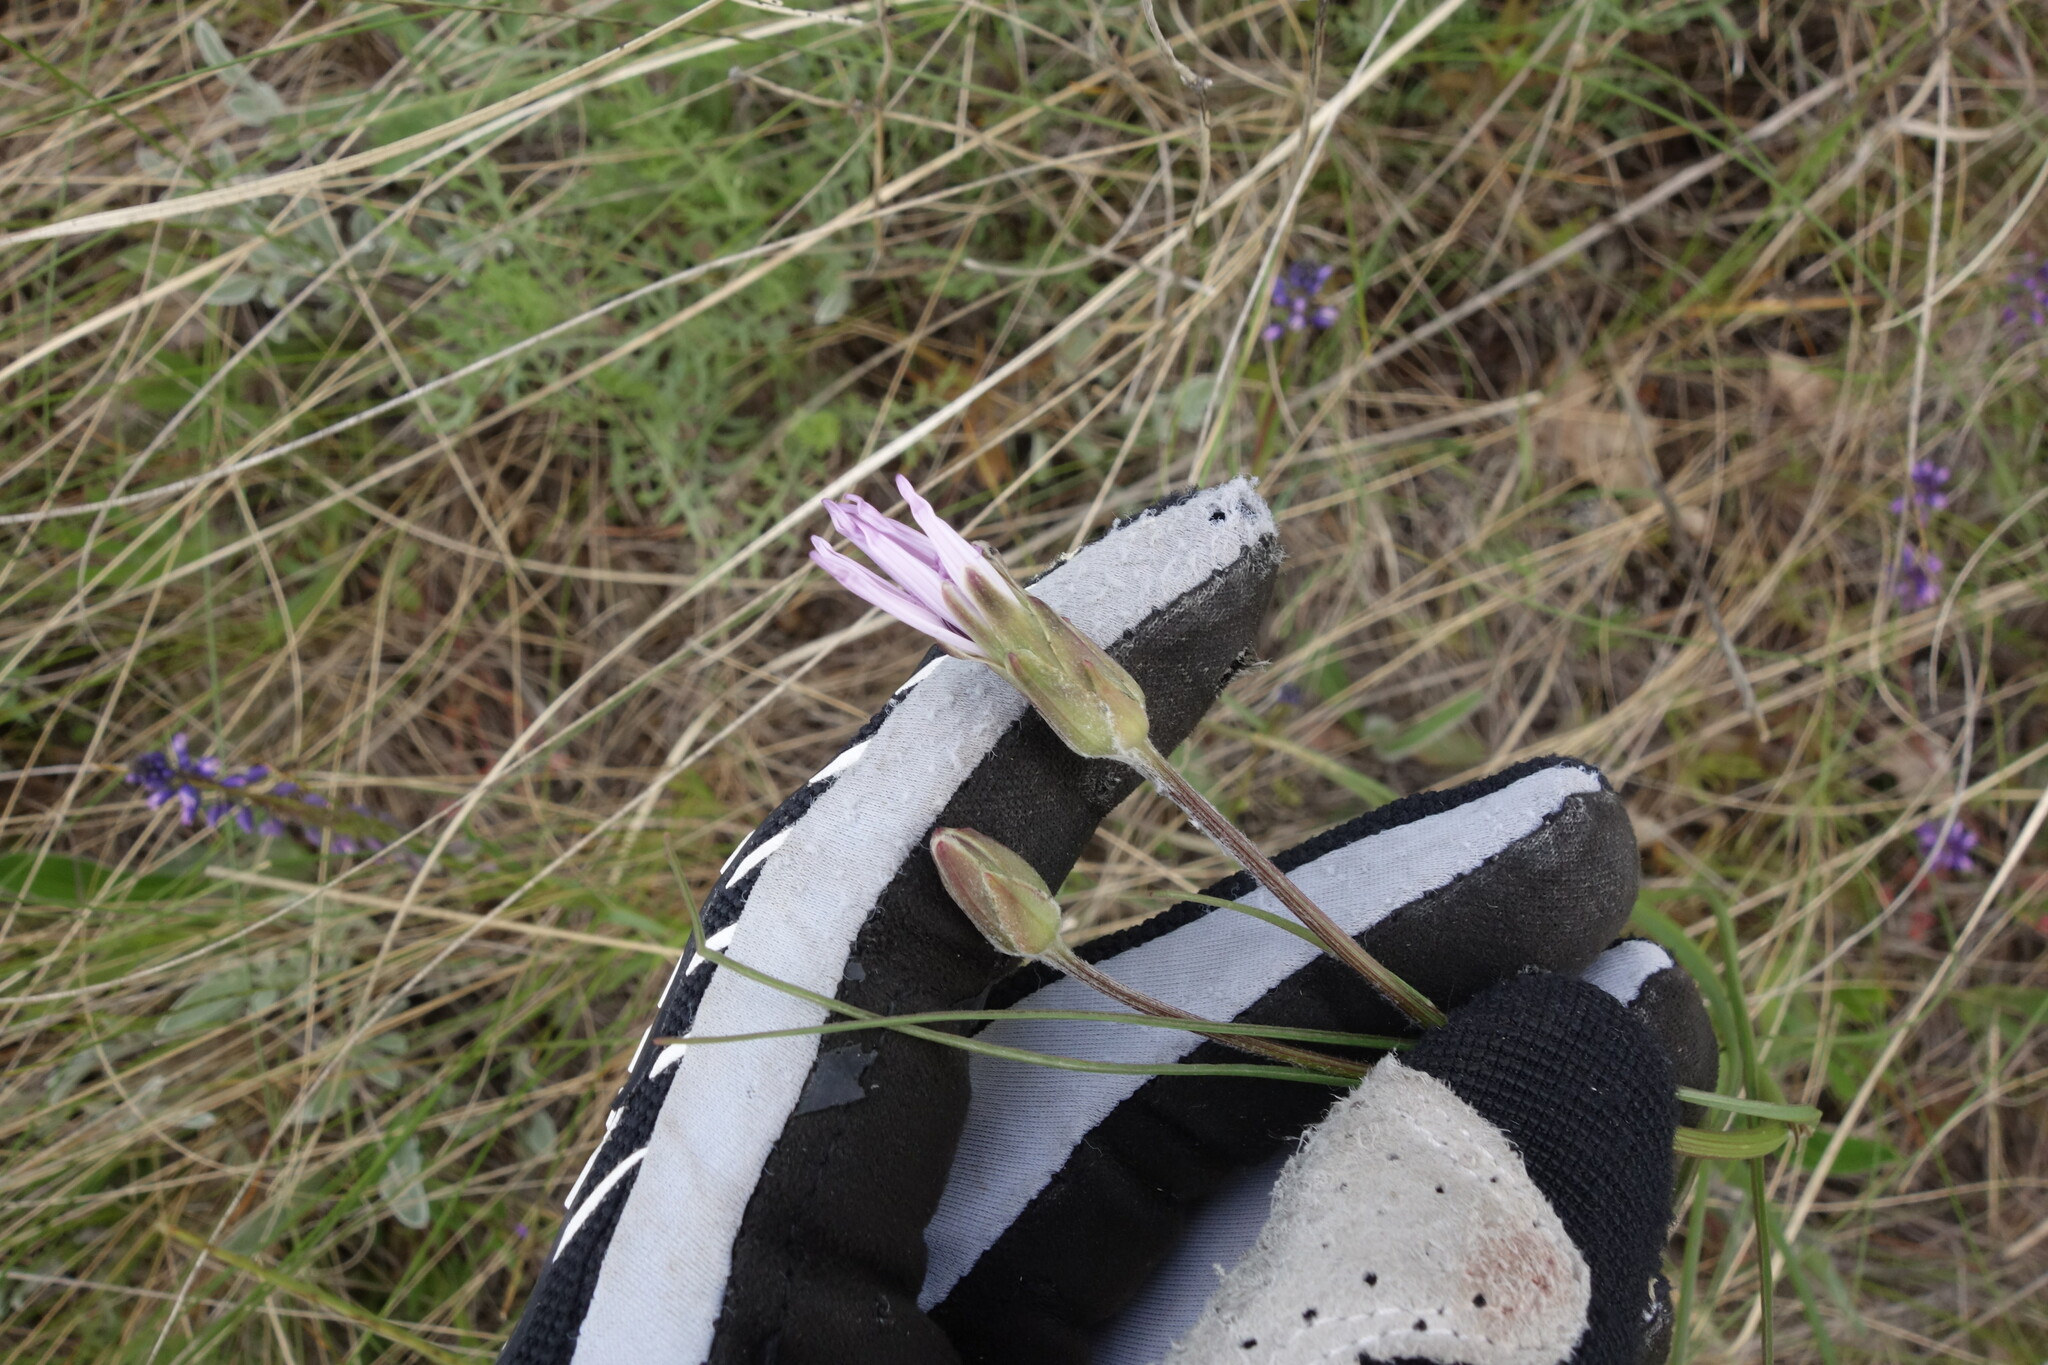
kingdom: Plantae
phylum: Tracheophyta
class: Magnoliopsida
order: Asterales
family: Asteraceae
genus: Scorzonera
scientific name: Scorzonera purpurea
